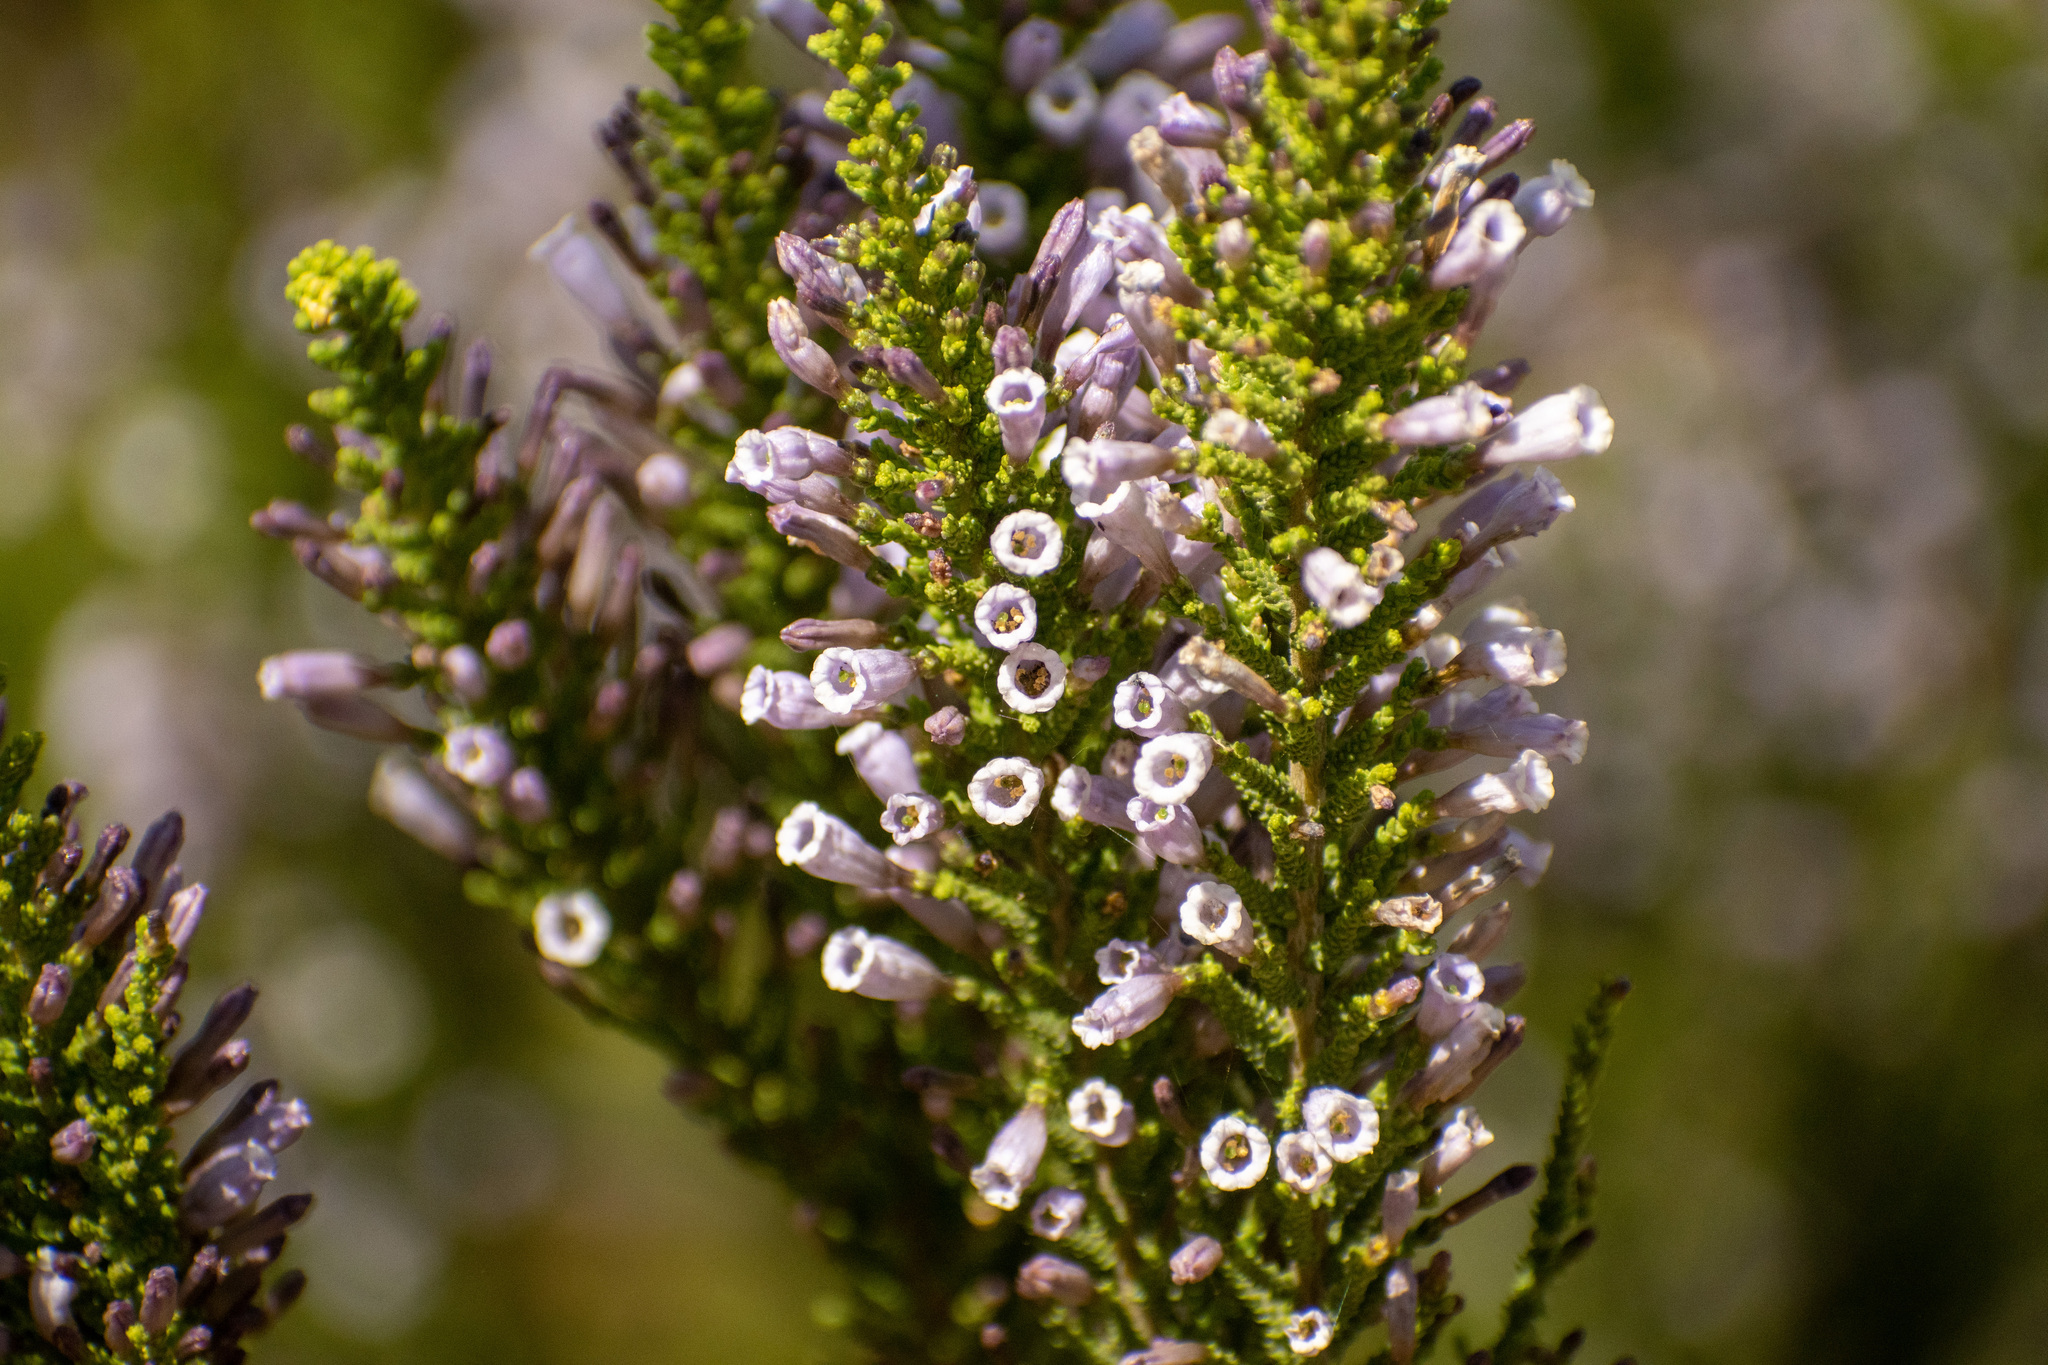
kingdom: Plantae
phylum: Tracheophyta
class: Magnoliopsida
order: Solanales
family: Solanaceae
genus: Fabiana
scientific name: Fabiana imbricata
